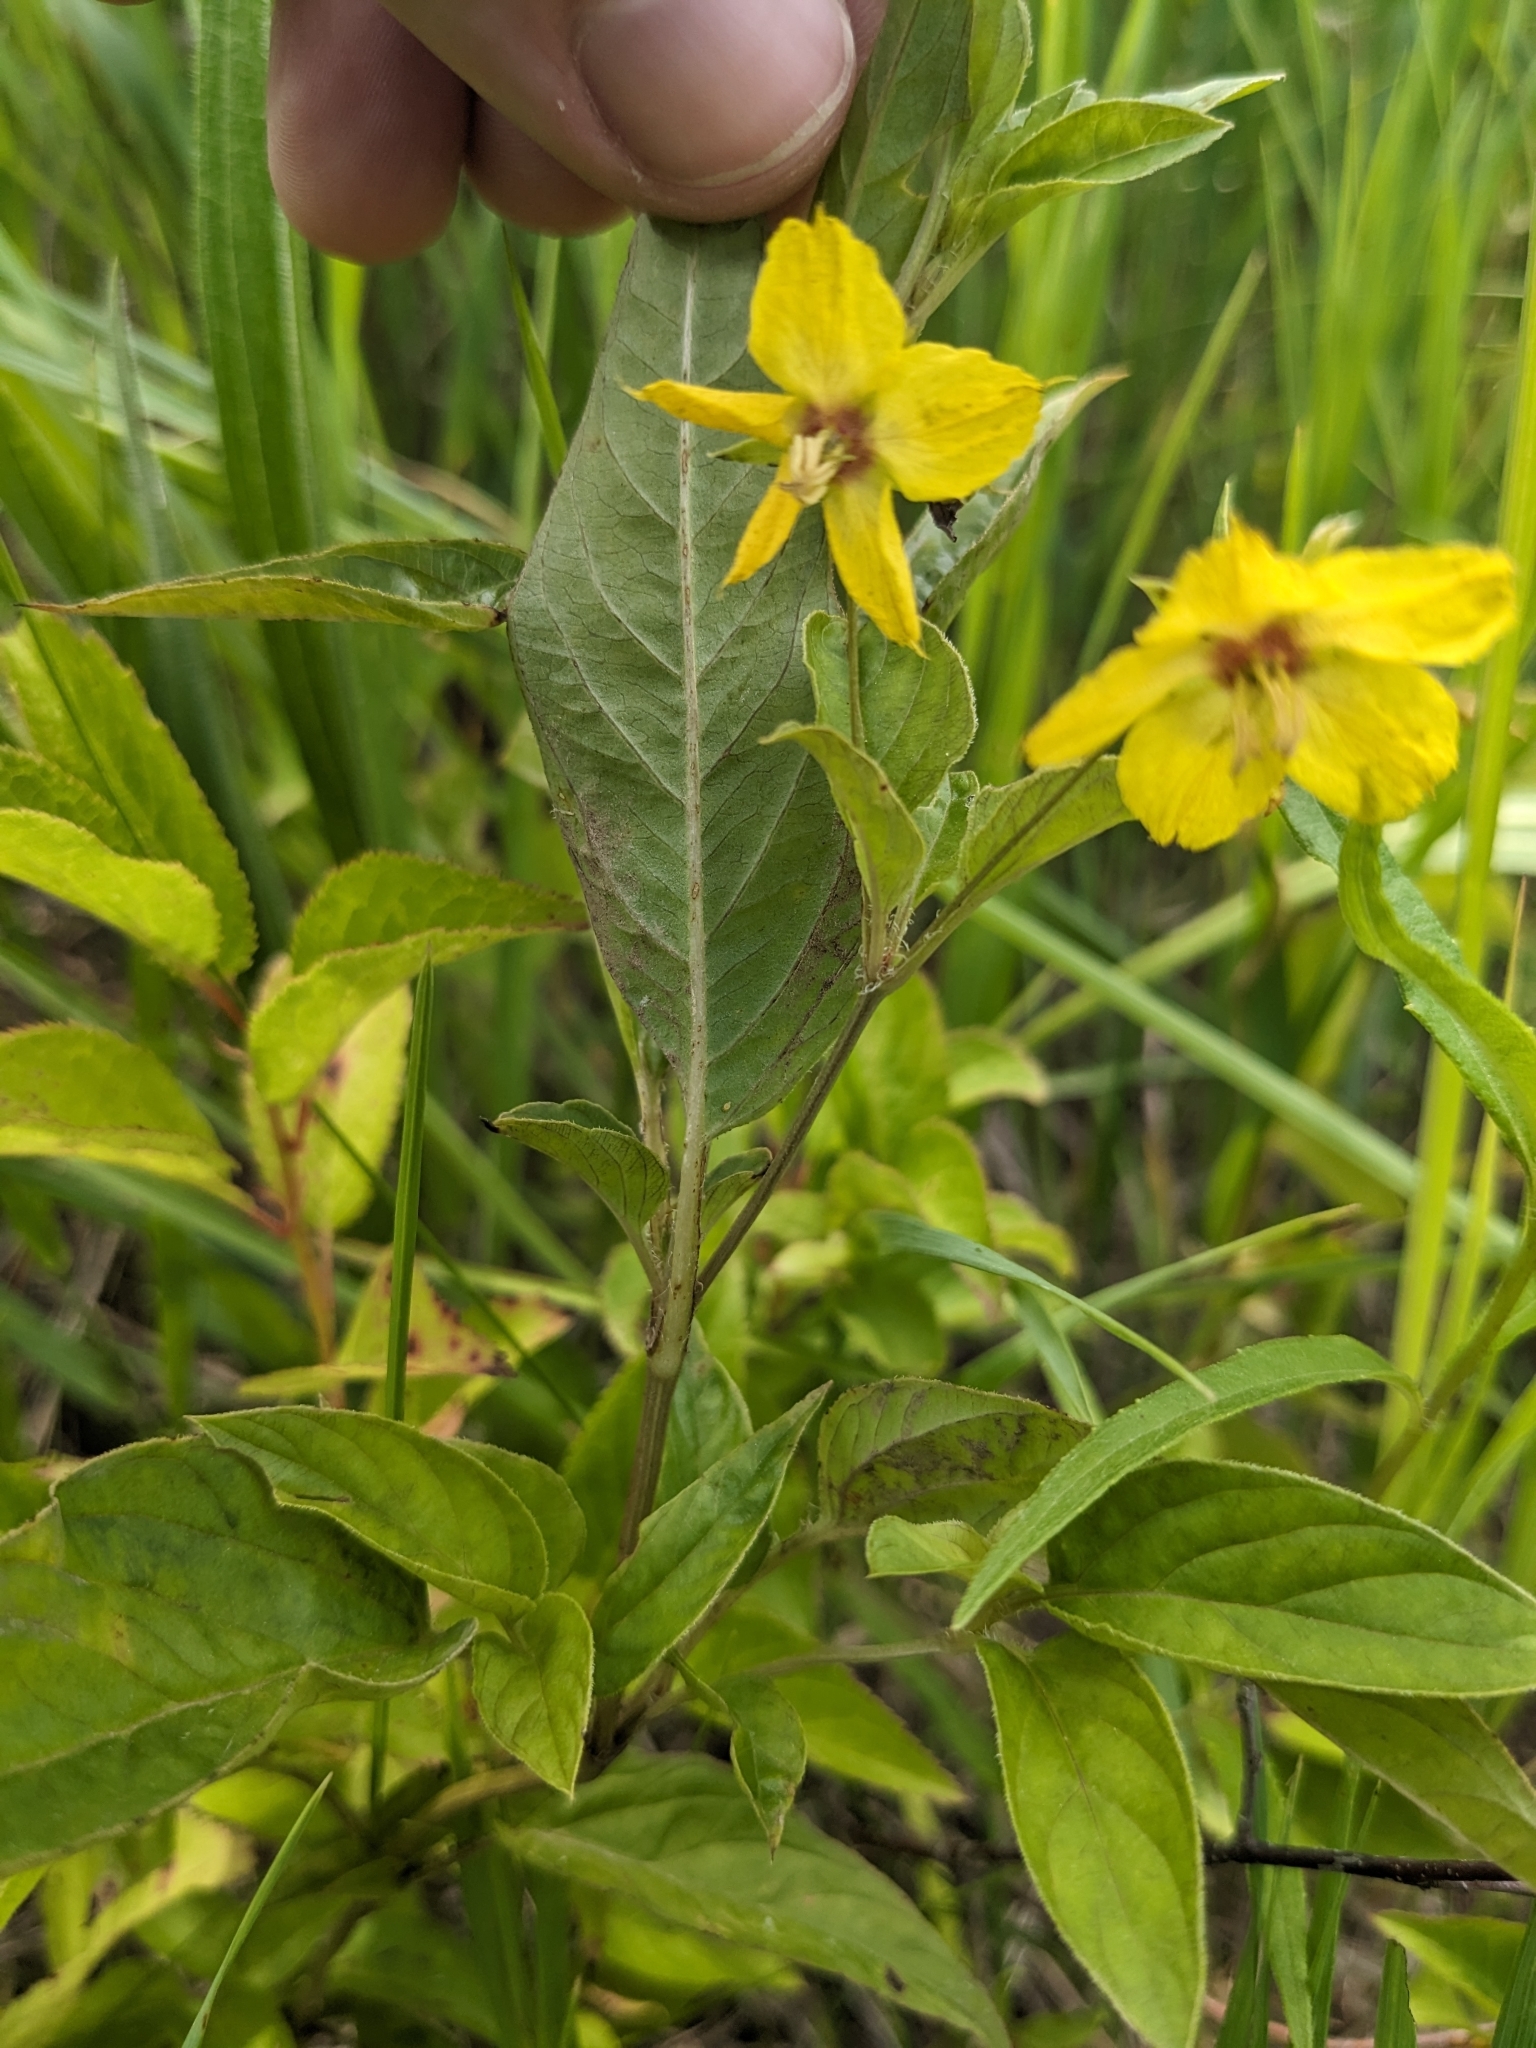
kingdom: Plantae
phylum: Tracheophyta
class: Magnoliopsida
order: Ericales
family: Primulaceae
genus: Lysimachia
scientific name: Lysimachia ciliata
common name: Fringed loosestrife
